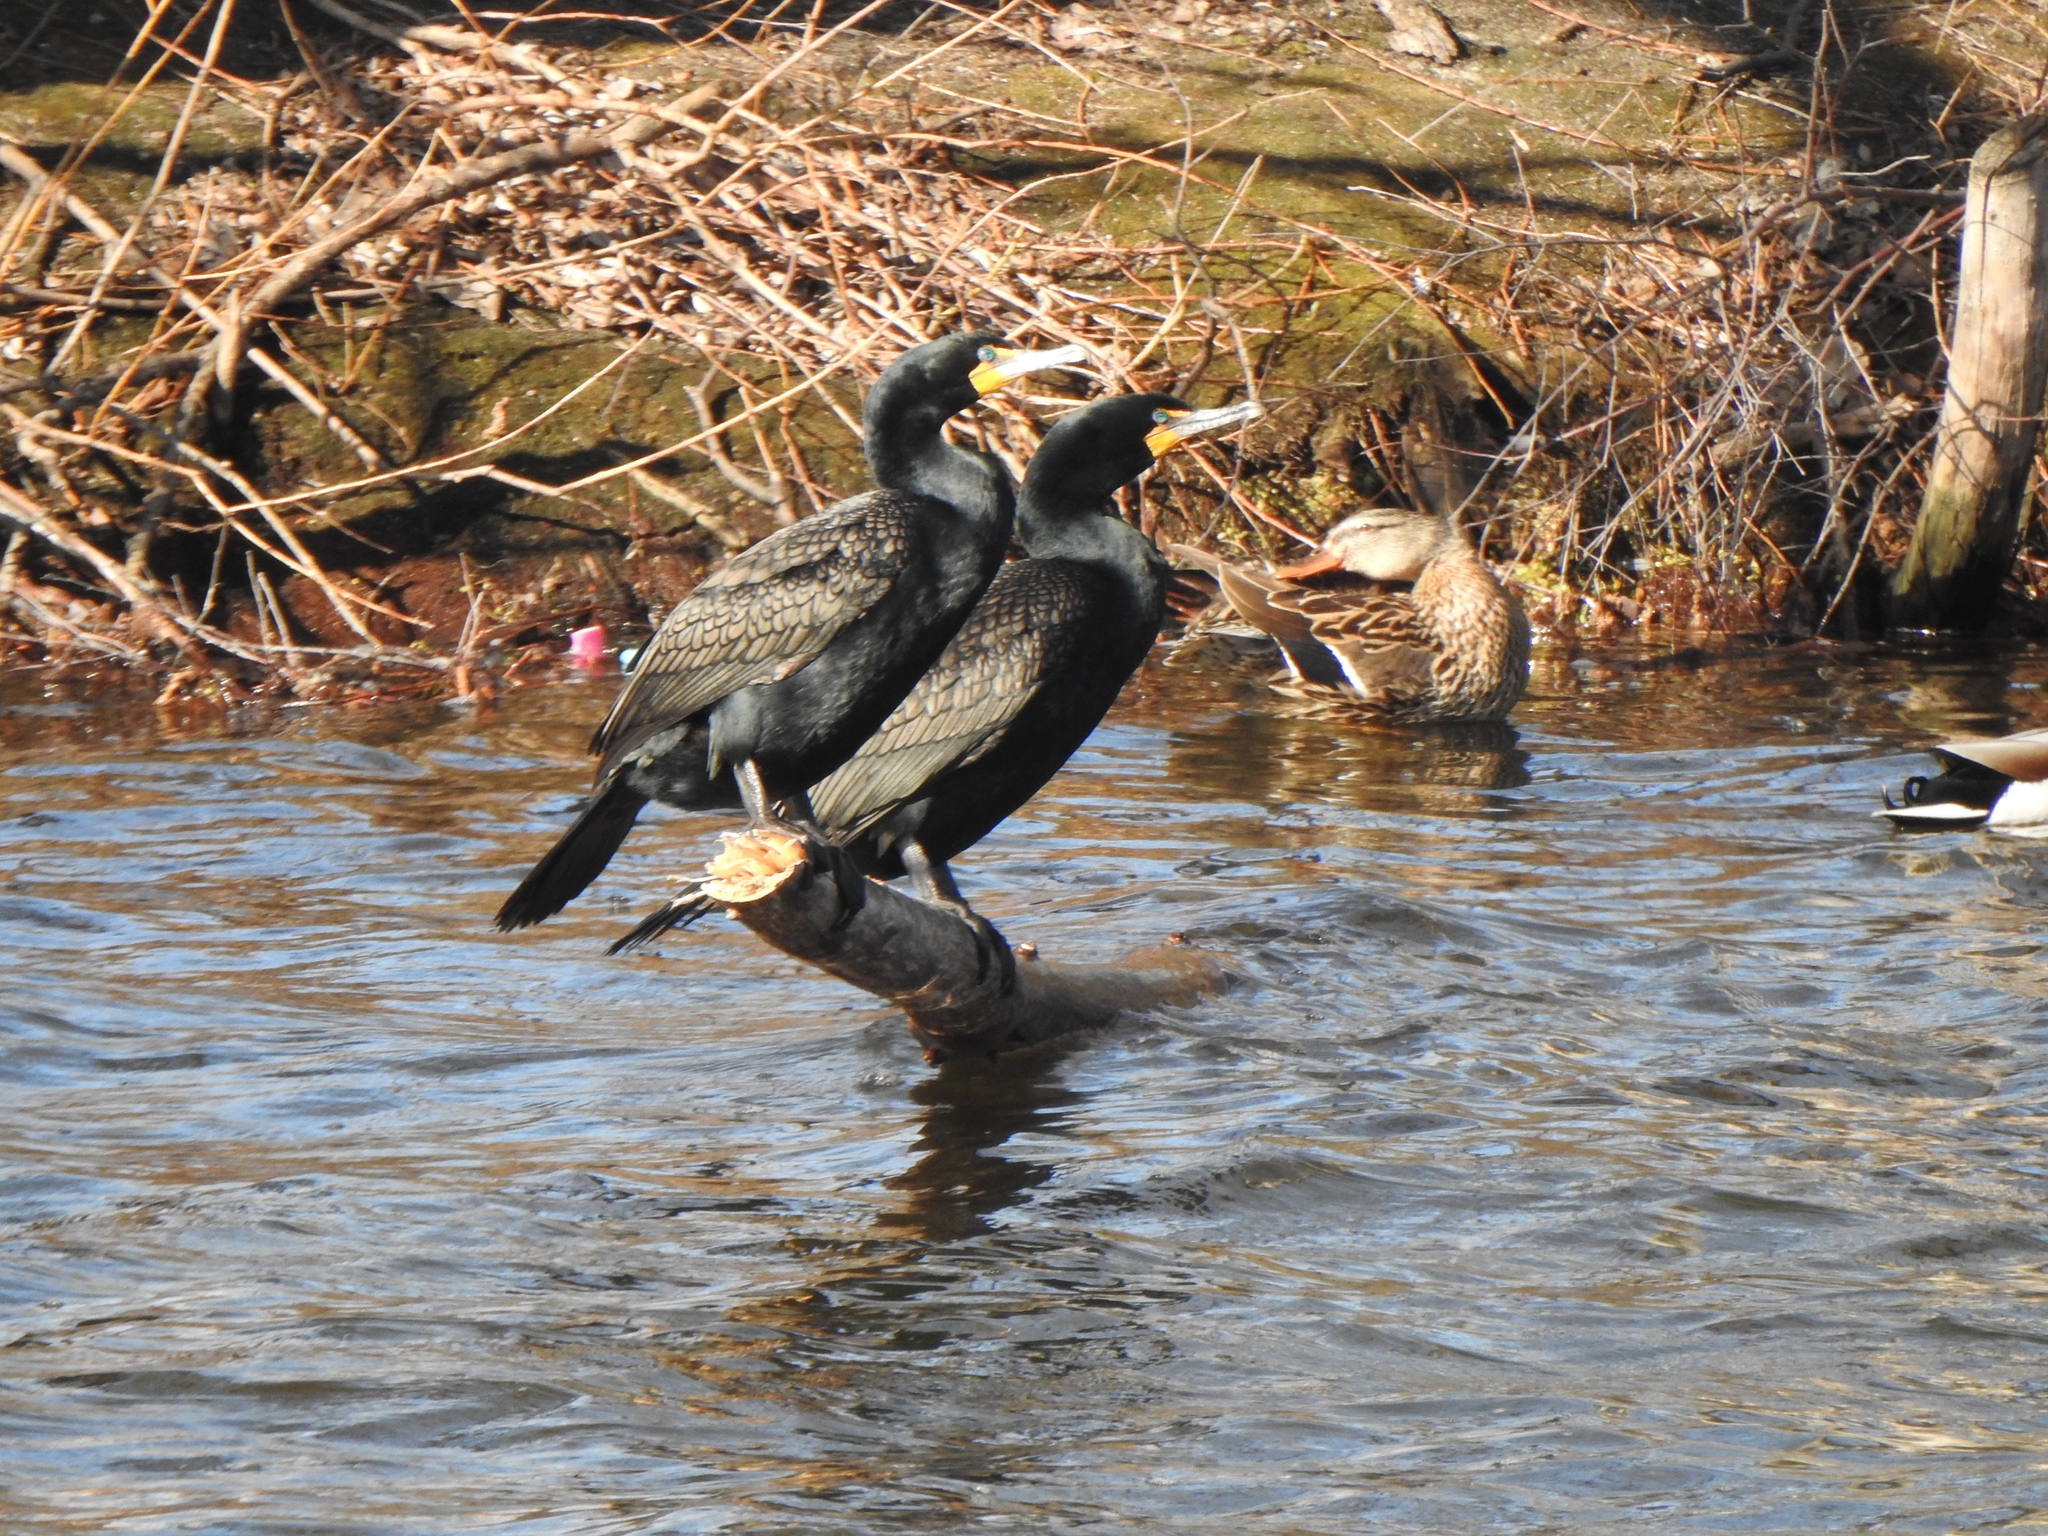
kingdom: Animalia
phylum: Chordata
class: Aves
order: Suliformes
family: Phalacrocoracidae
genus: Phalacrocorax
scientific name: Phalacrocorax auritus
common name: Double-crested cormorant
